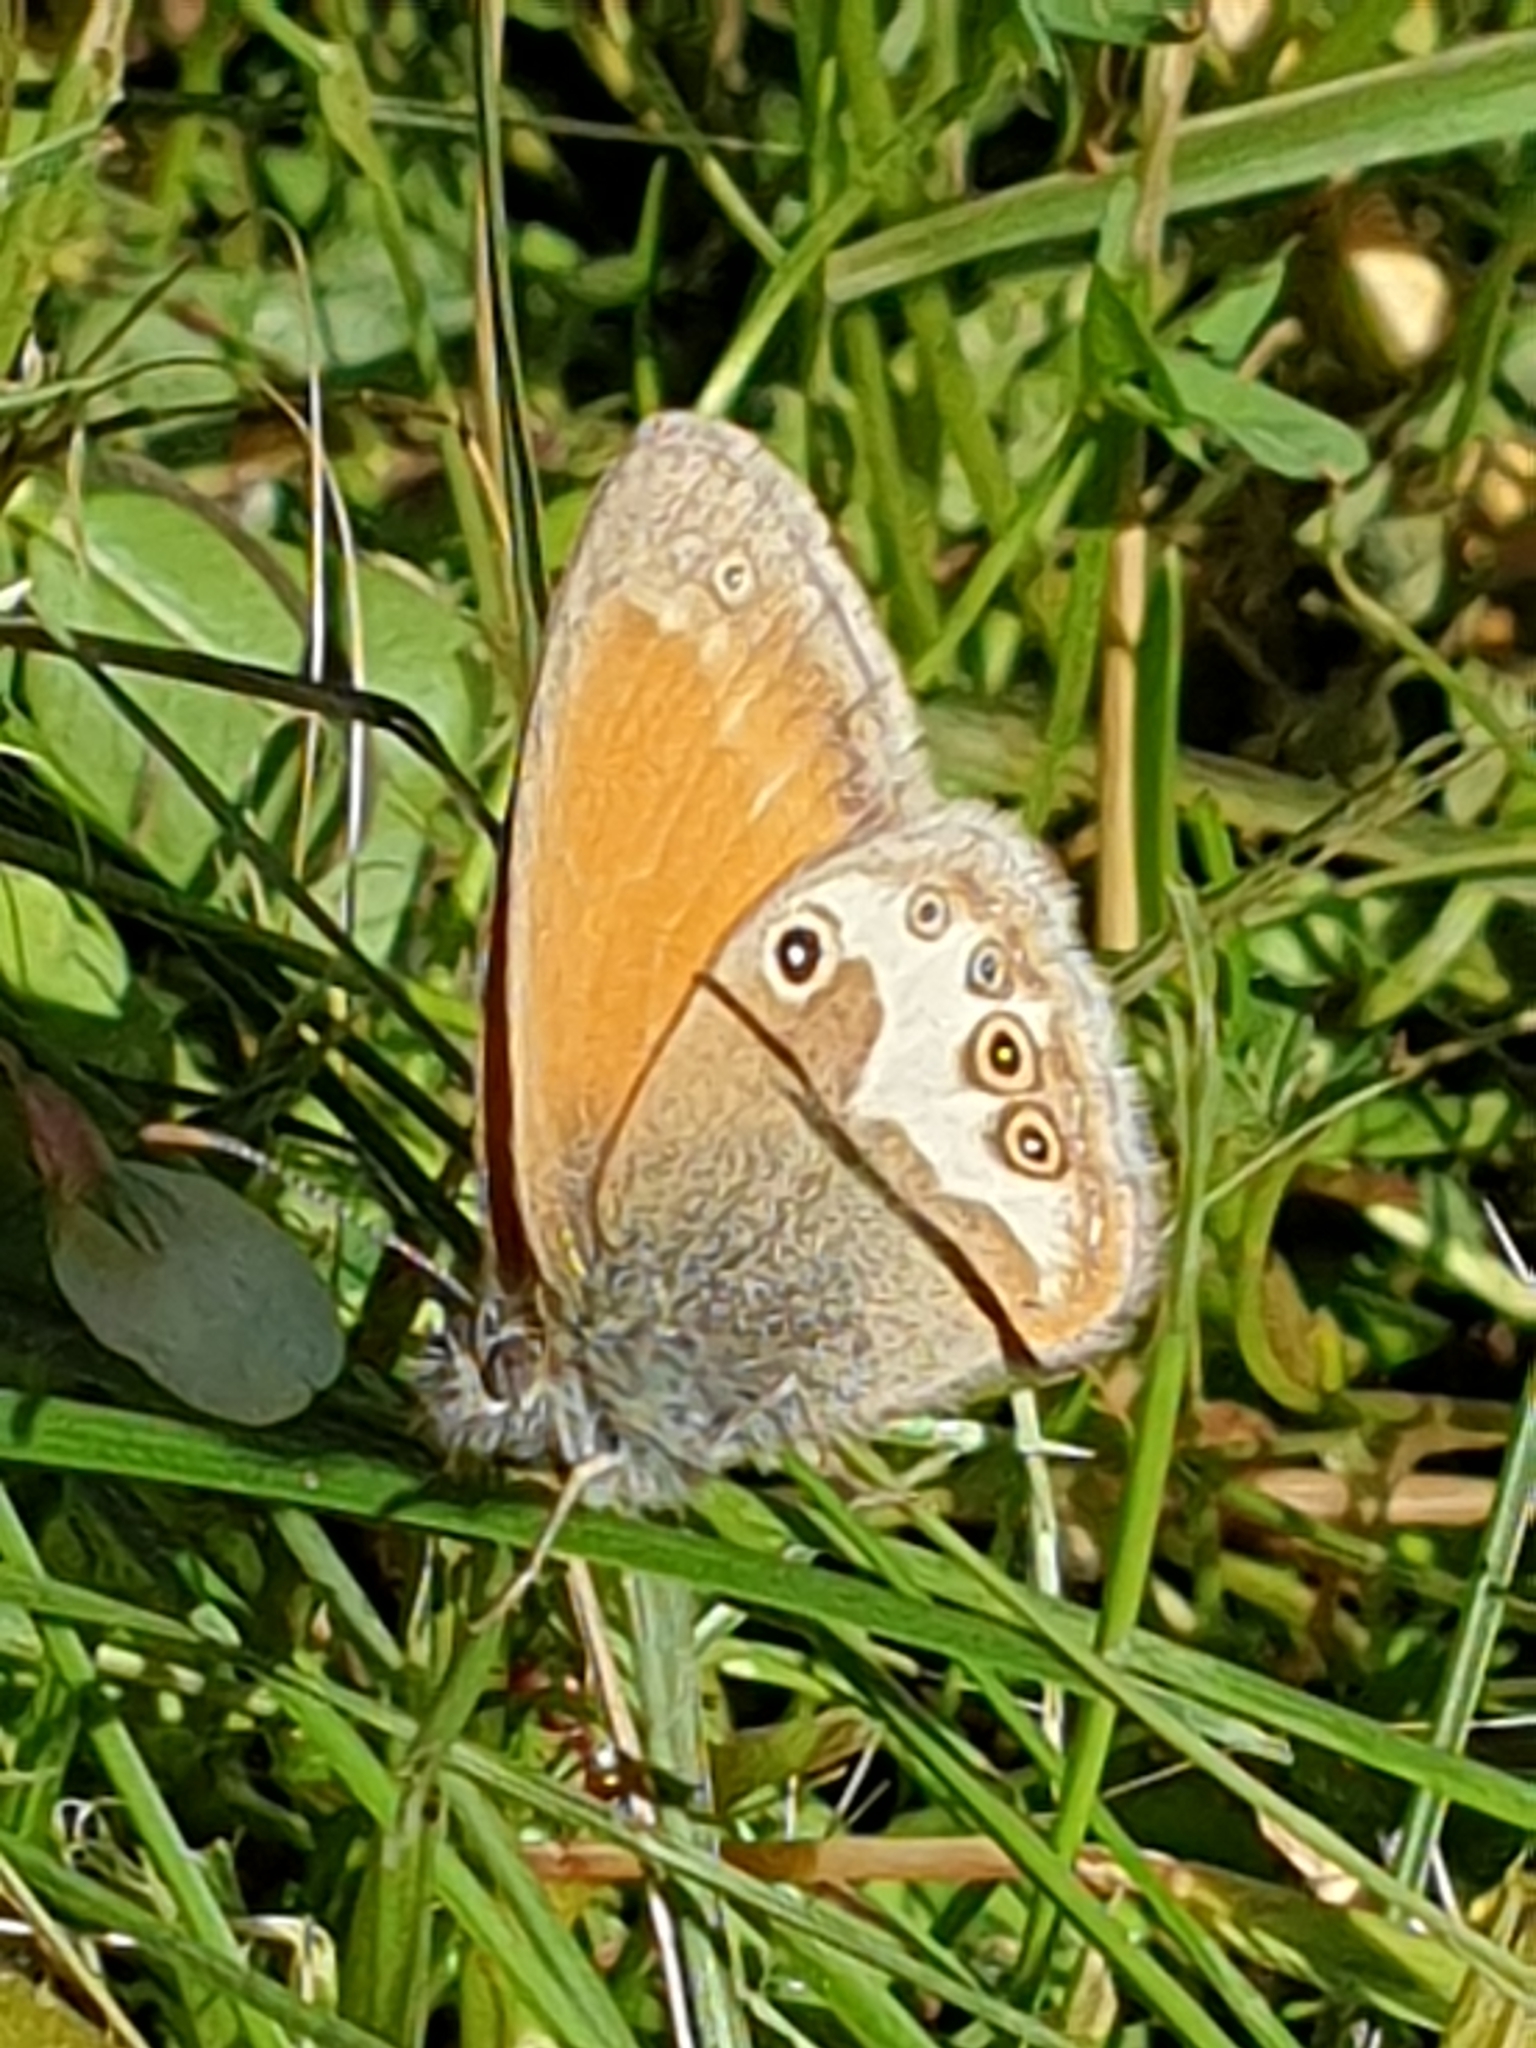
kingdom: Animalia
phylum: Arthropoda
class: Insecta
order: Lepidoptera
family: Nymphalidae
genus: Coenonympha
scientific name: Coenonympha arcania
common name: Pearly heath
